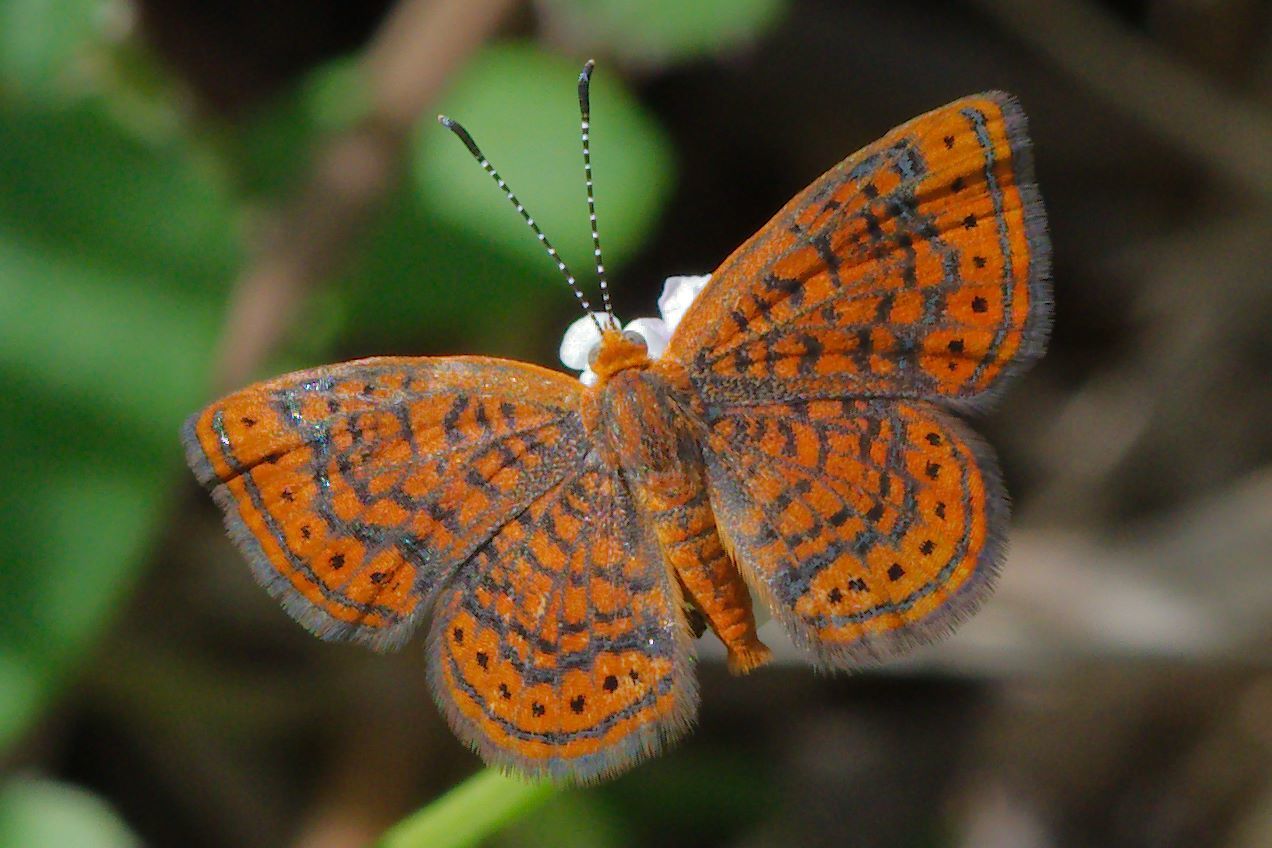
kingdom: Animalia
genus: Calephelis
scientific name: Calephelis virginiensis
